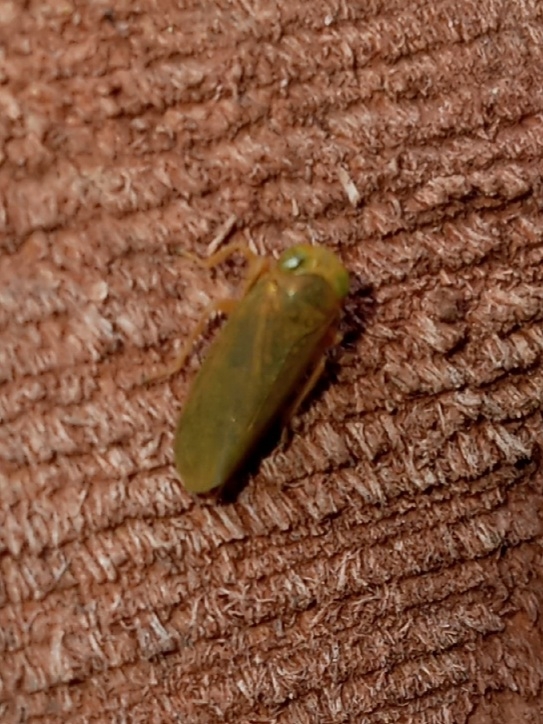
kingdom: Animalia
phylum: Arthropoda
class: Insecta
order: Hemiptera
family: Cicadellidae
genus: Jikradia
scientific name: Jikradia olitoria
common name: Coppery leafhopper
